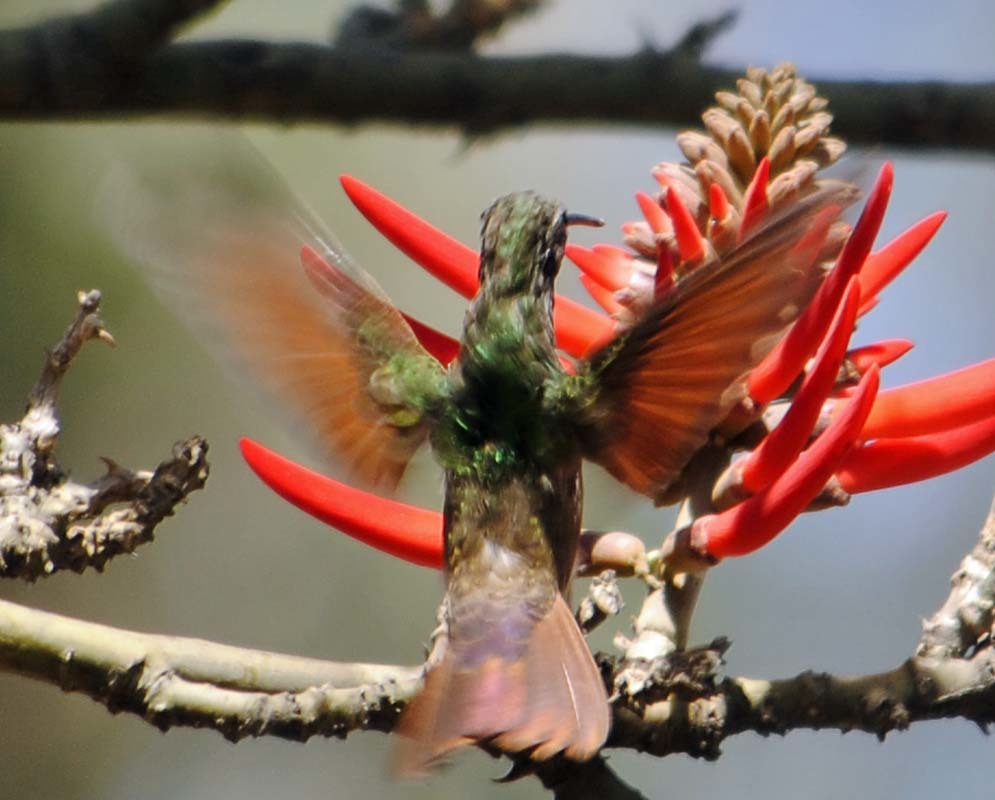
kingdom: Animalia
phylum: Chordata
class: Aves
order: Apodiformes
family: Trochilidae
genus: Saucerottia
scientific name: Saucerottia beryllina
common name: Berylline hummingbird
